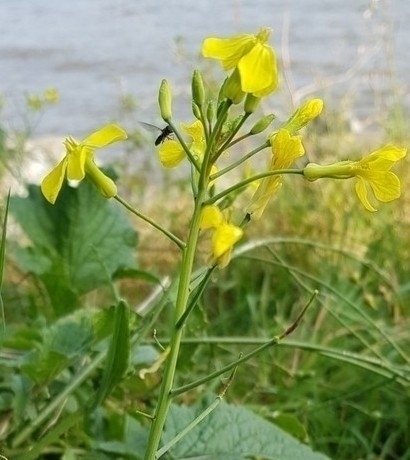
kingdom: Plantae
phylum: Tracheophyta
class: Magnoliopsida
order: Brassicales
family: Brassicaceae
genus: Raphanus
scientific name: Raphanus raphanistrum
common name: Wild radish
